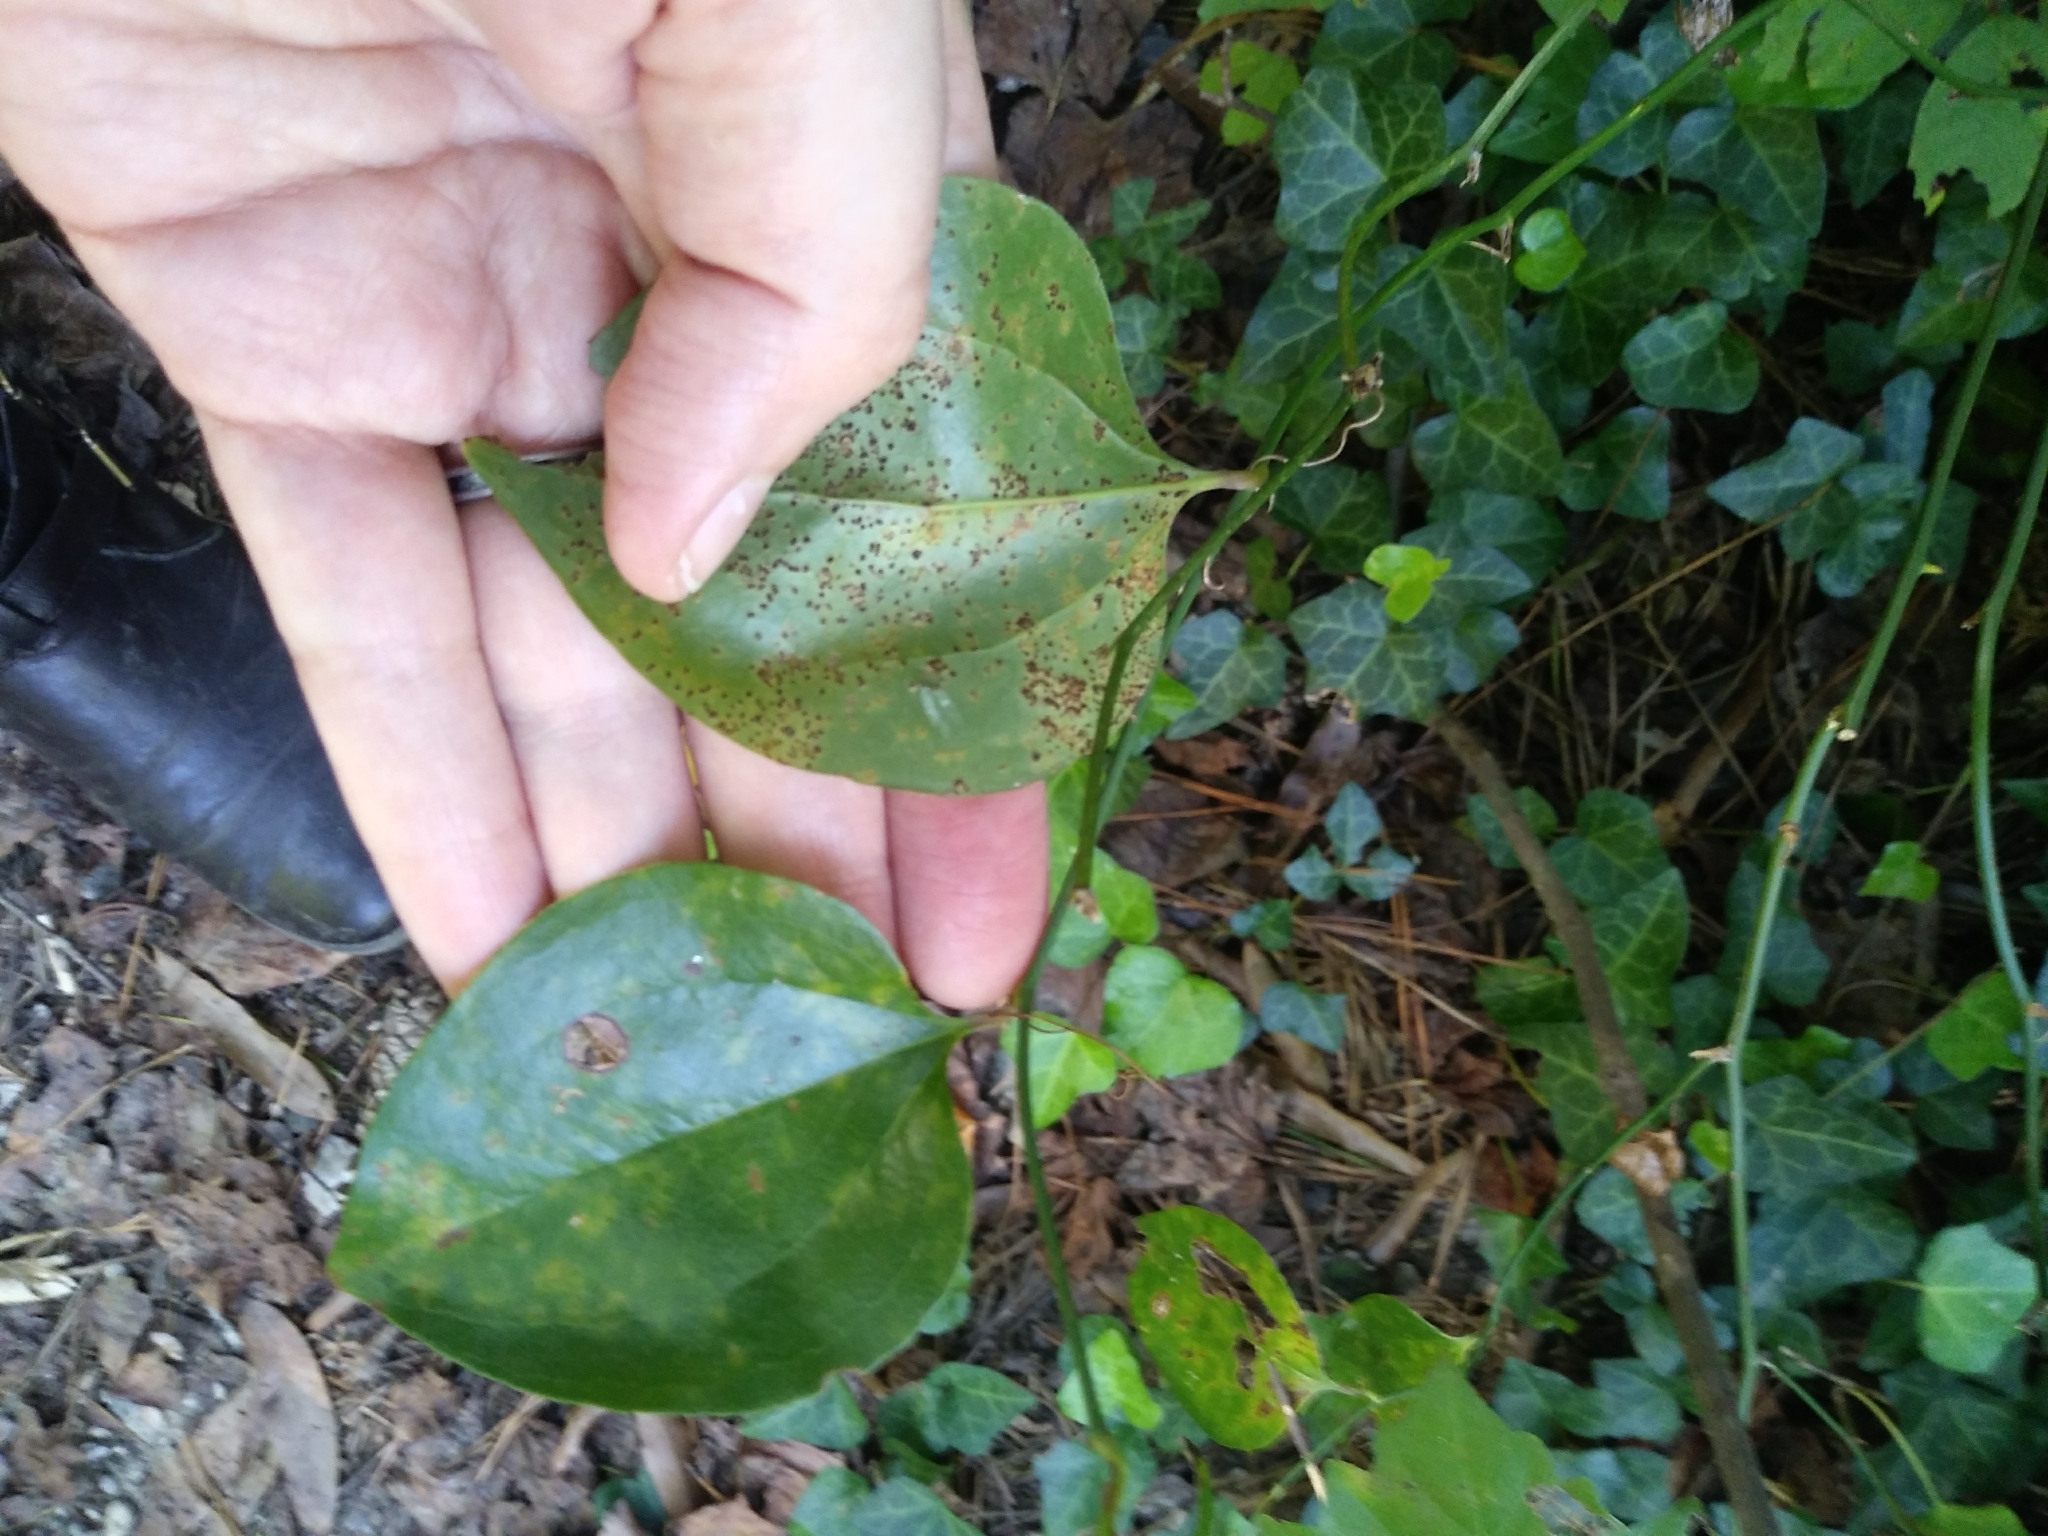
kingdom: Plantae
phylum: Tracheophyta
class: Liliopsida
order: Liliales
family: Smilacaceae
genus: Smilax
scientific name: Smilax rotundifolia
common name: Bullbriar
